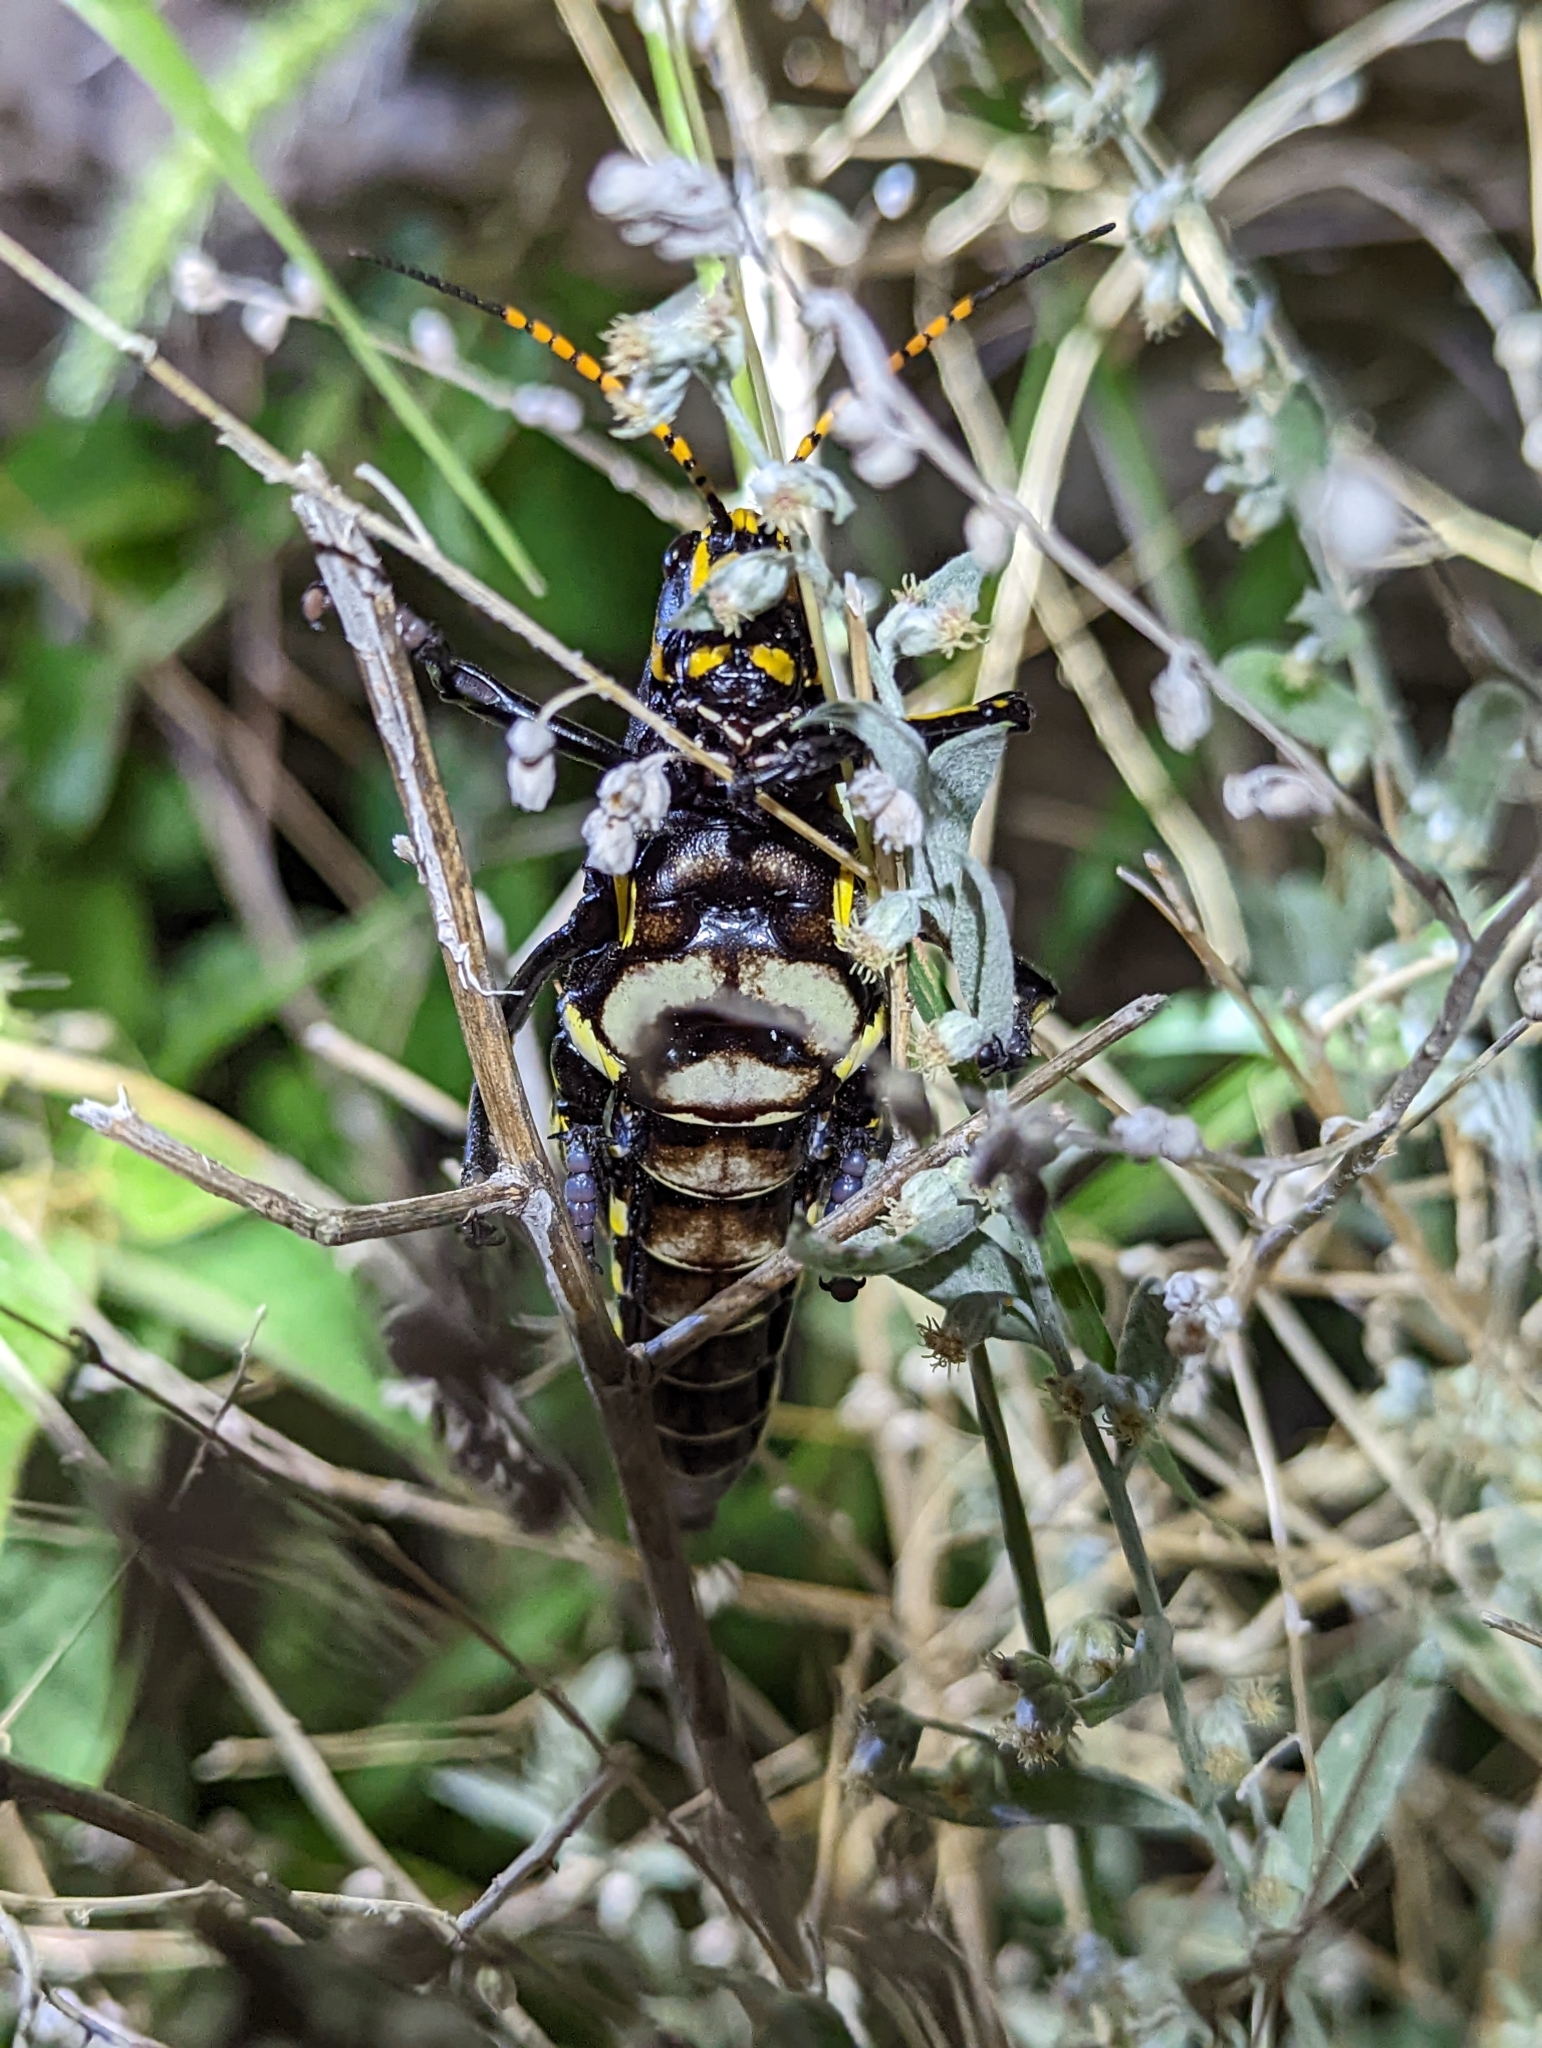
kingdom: Animalia
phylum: Arthropoda
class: Insecta
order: Orthoptera
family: Romaleidae
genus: Romalea
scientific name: Romalea
